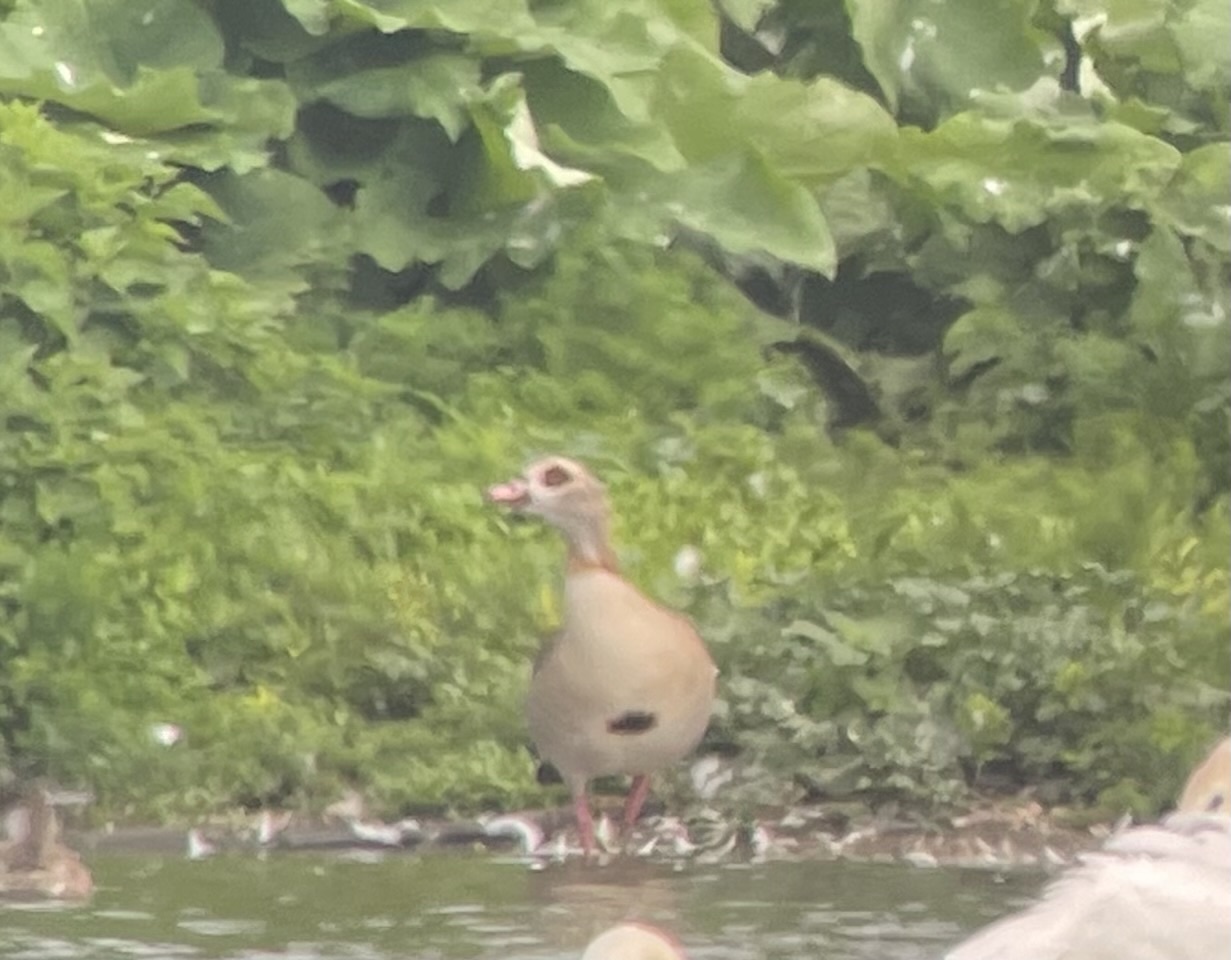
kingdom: Animalia
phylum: Chordata
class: Aves
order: Anseriformes
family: Anatidae
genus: Alopochen
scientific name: Alopochen aegyptiaca
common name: Egyptian goose
